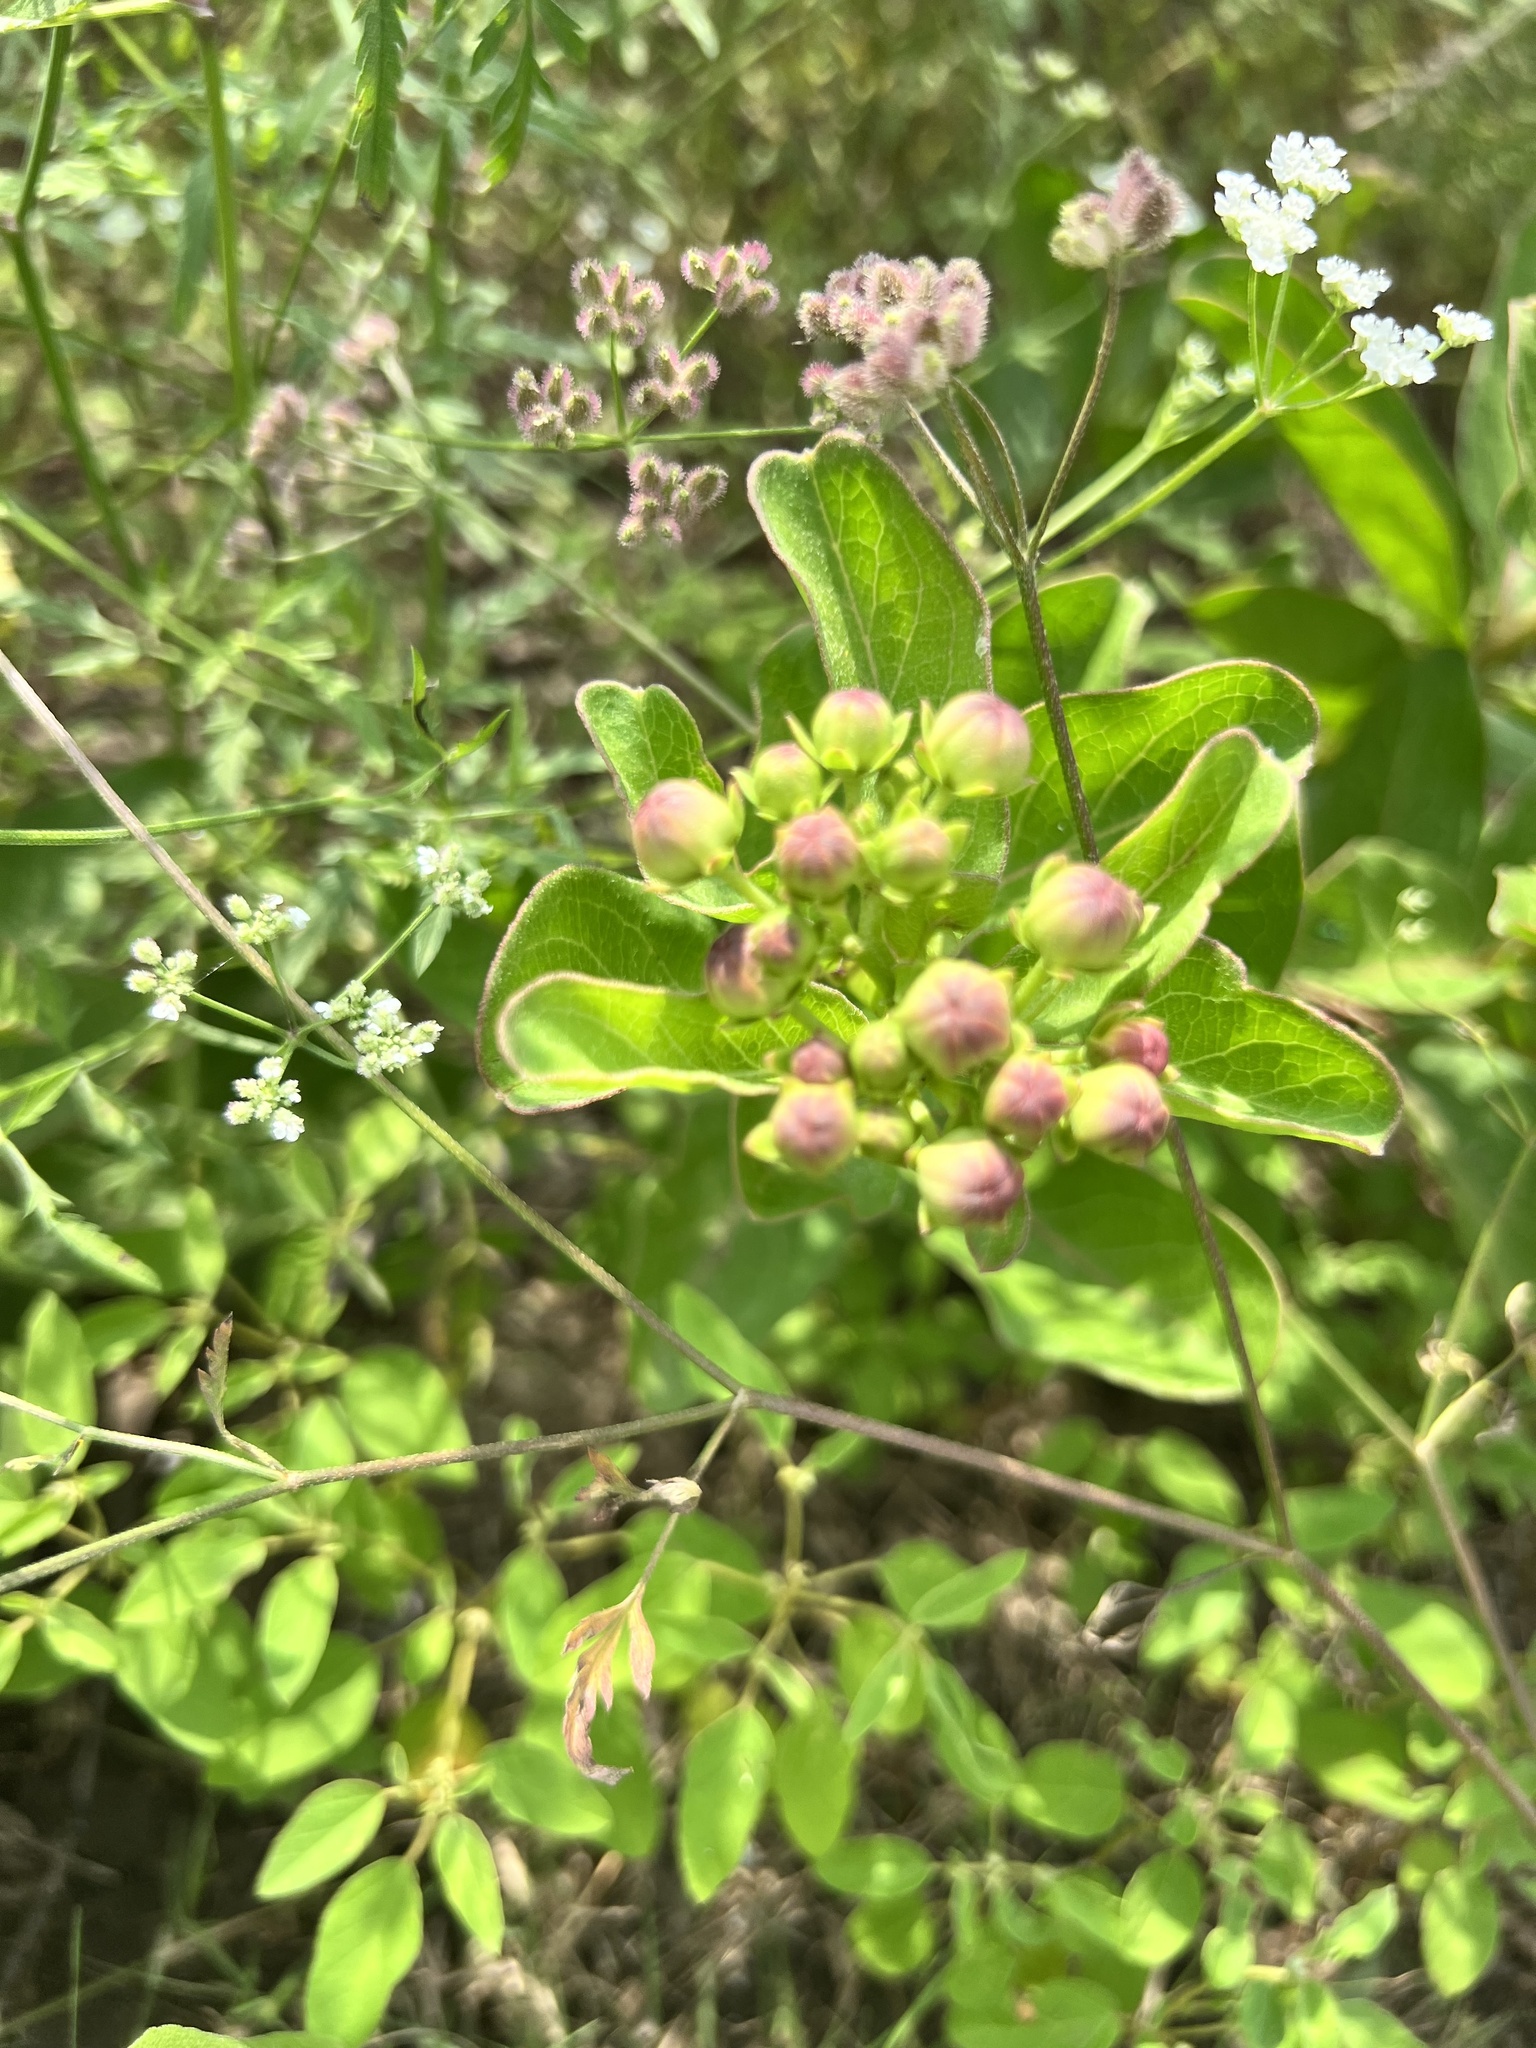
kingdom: Plantae
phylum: Tracheophyta
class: Magnoliopsida
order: Gentianales
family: Apocynaceae
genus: Asclepias
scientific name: Asclepias viridis
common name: Antelope-horns
